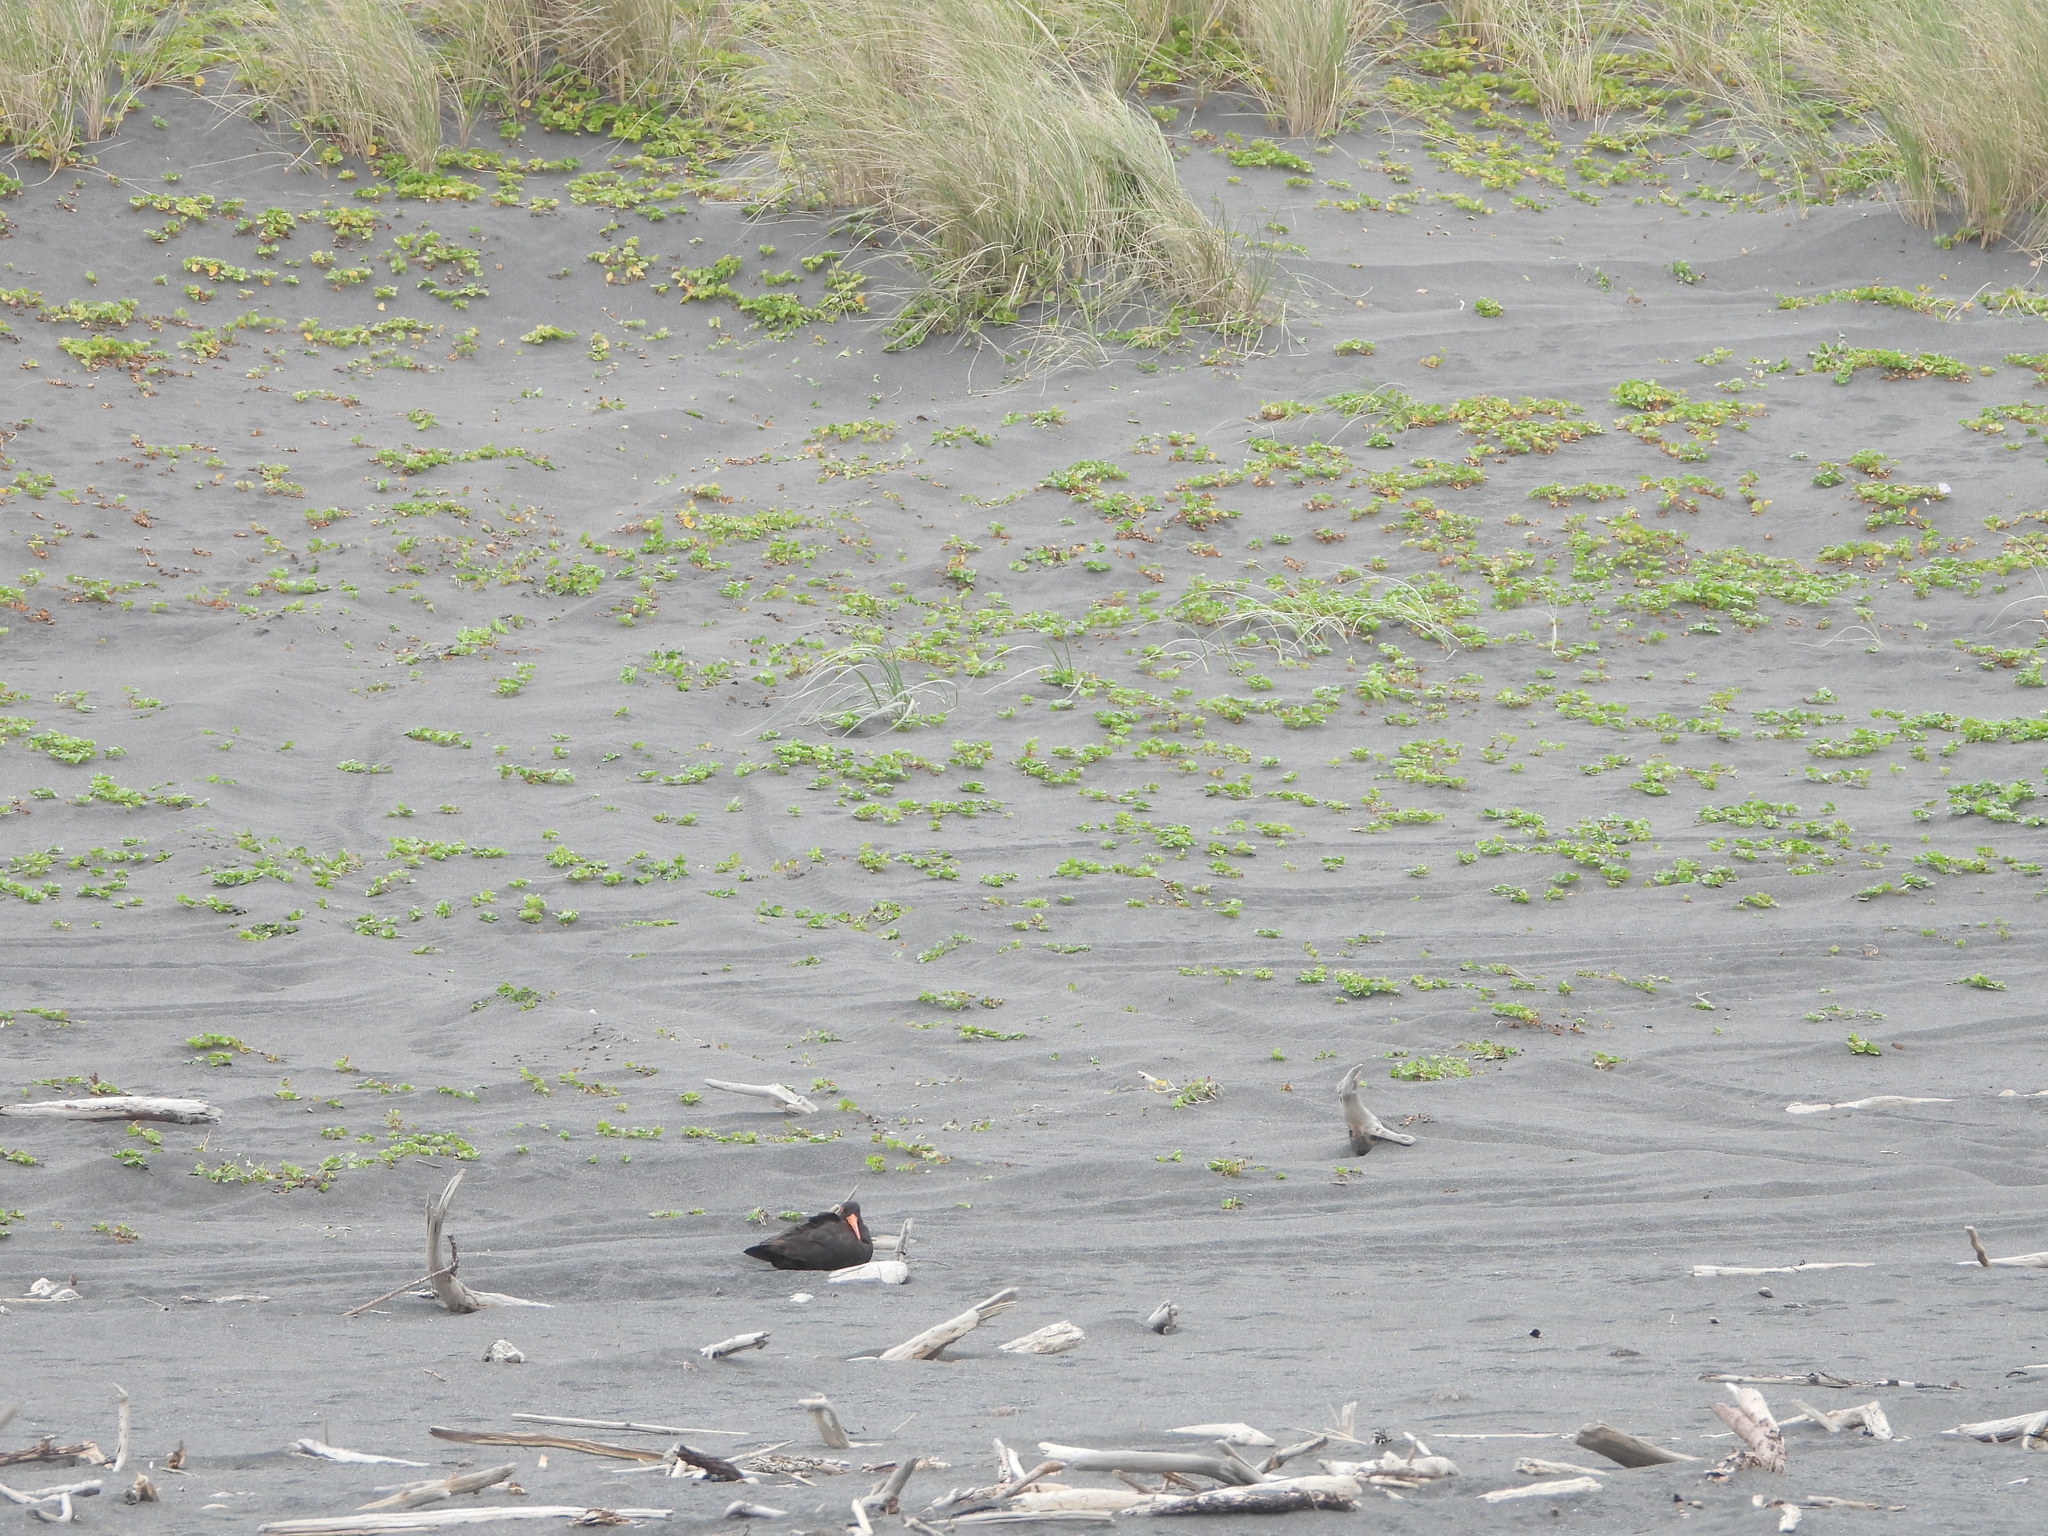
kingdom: Animalia
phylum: Chordata
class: Aves
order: Charadriiformes
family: Haematopodidae
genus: Haematopus
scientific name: Haematopus unicolor
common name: Variable oystercatcher
